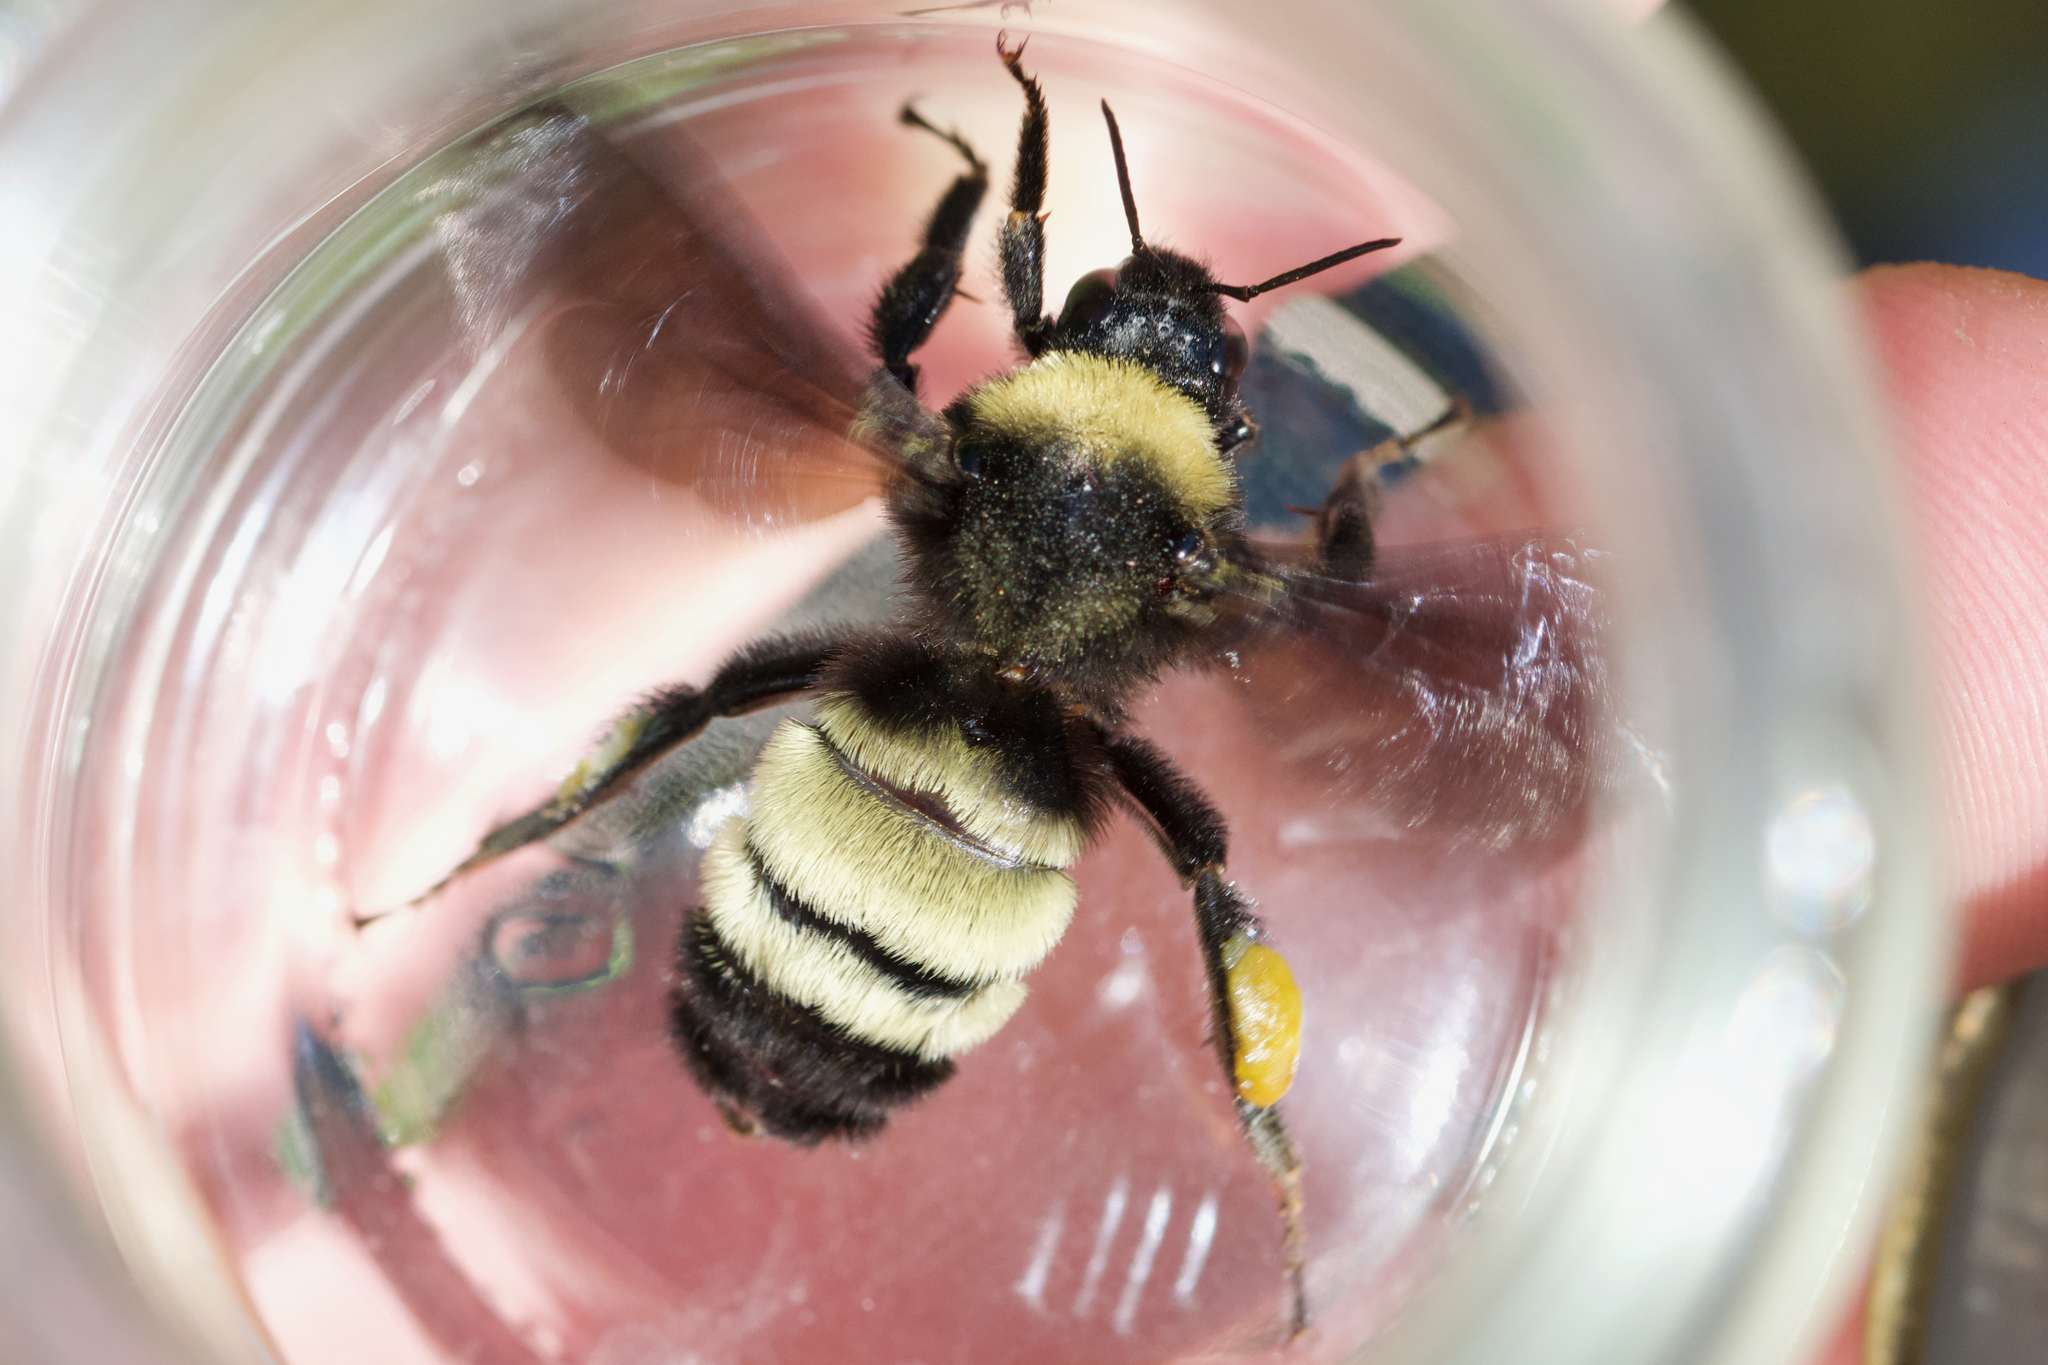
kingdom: Animalia
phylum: Arthropoda
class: Insecta
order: Hymenoptera
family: Apidae
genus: Bombus
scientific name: Bombus pensylvanicus
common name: Bumble bee
